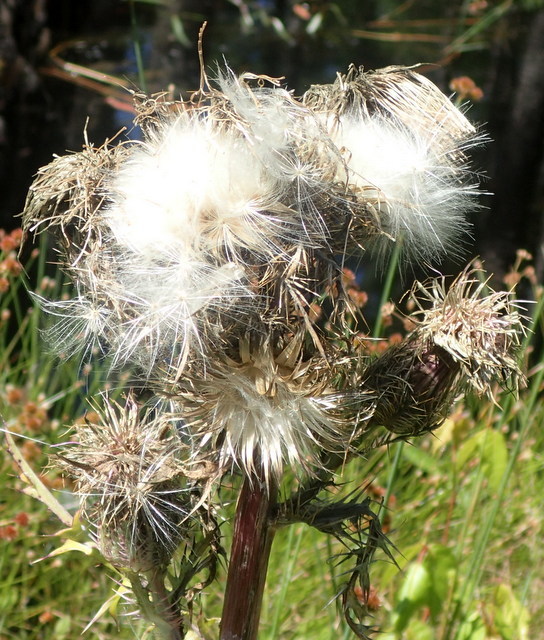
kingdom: Plantae
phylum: Tracheophyta
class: Magnoliopsida
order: Asterales
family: Asteraceae
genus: Cirsium
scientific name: Cirsium horridulum
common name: Bristly thistle
